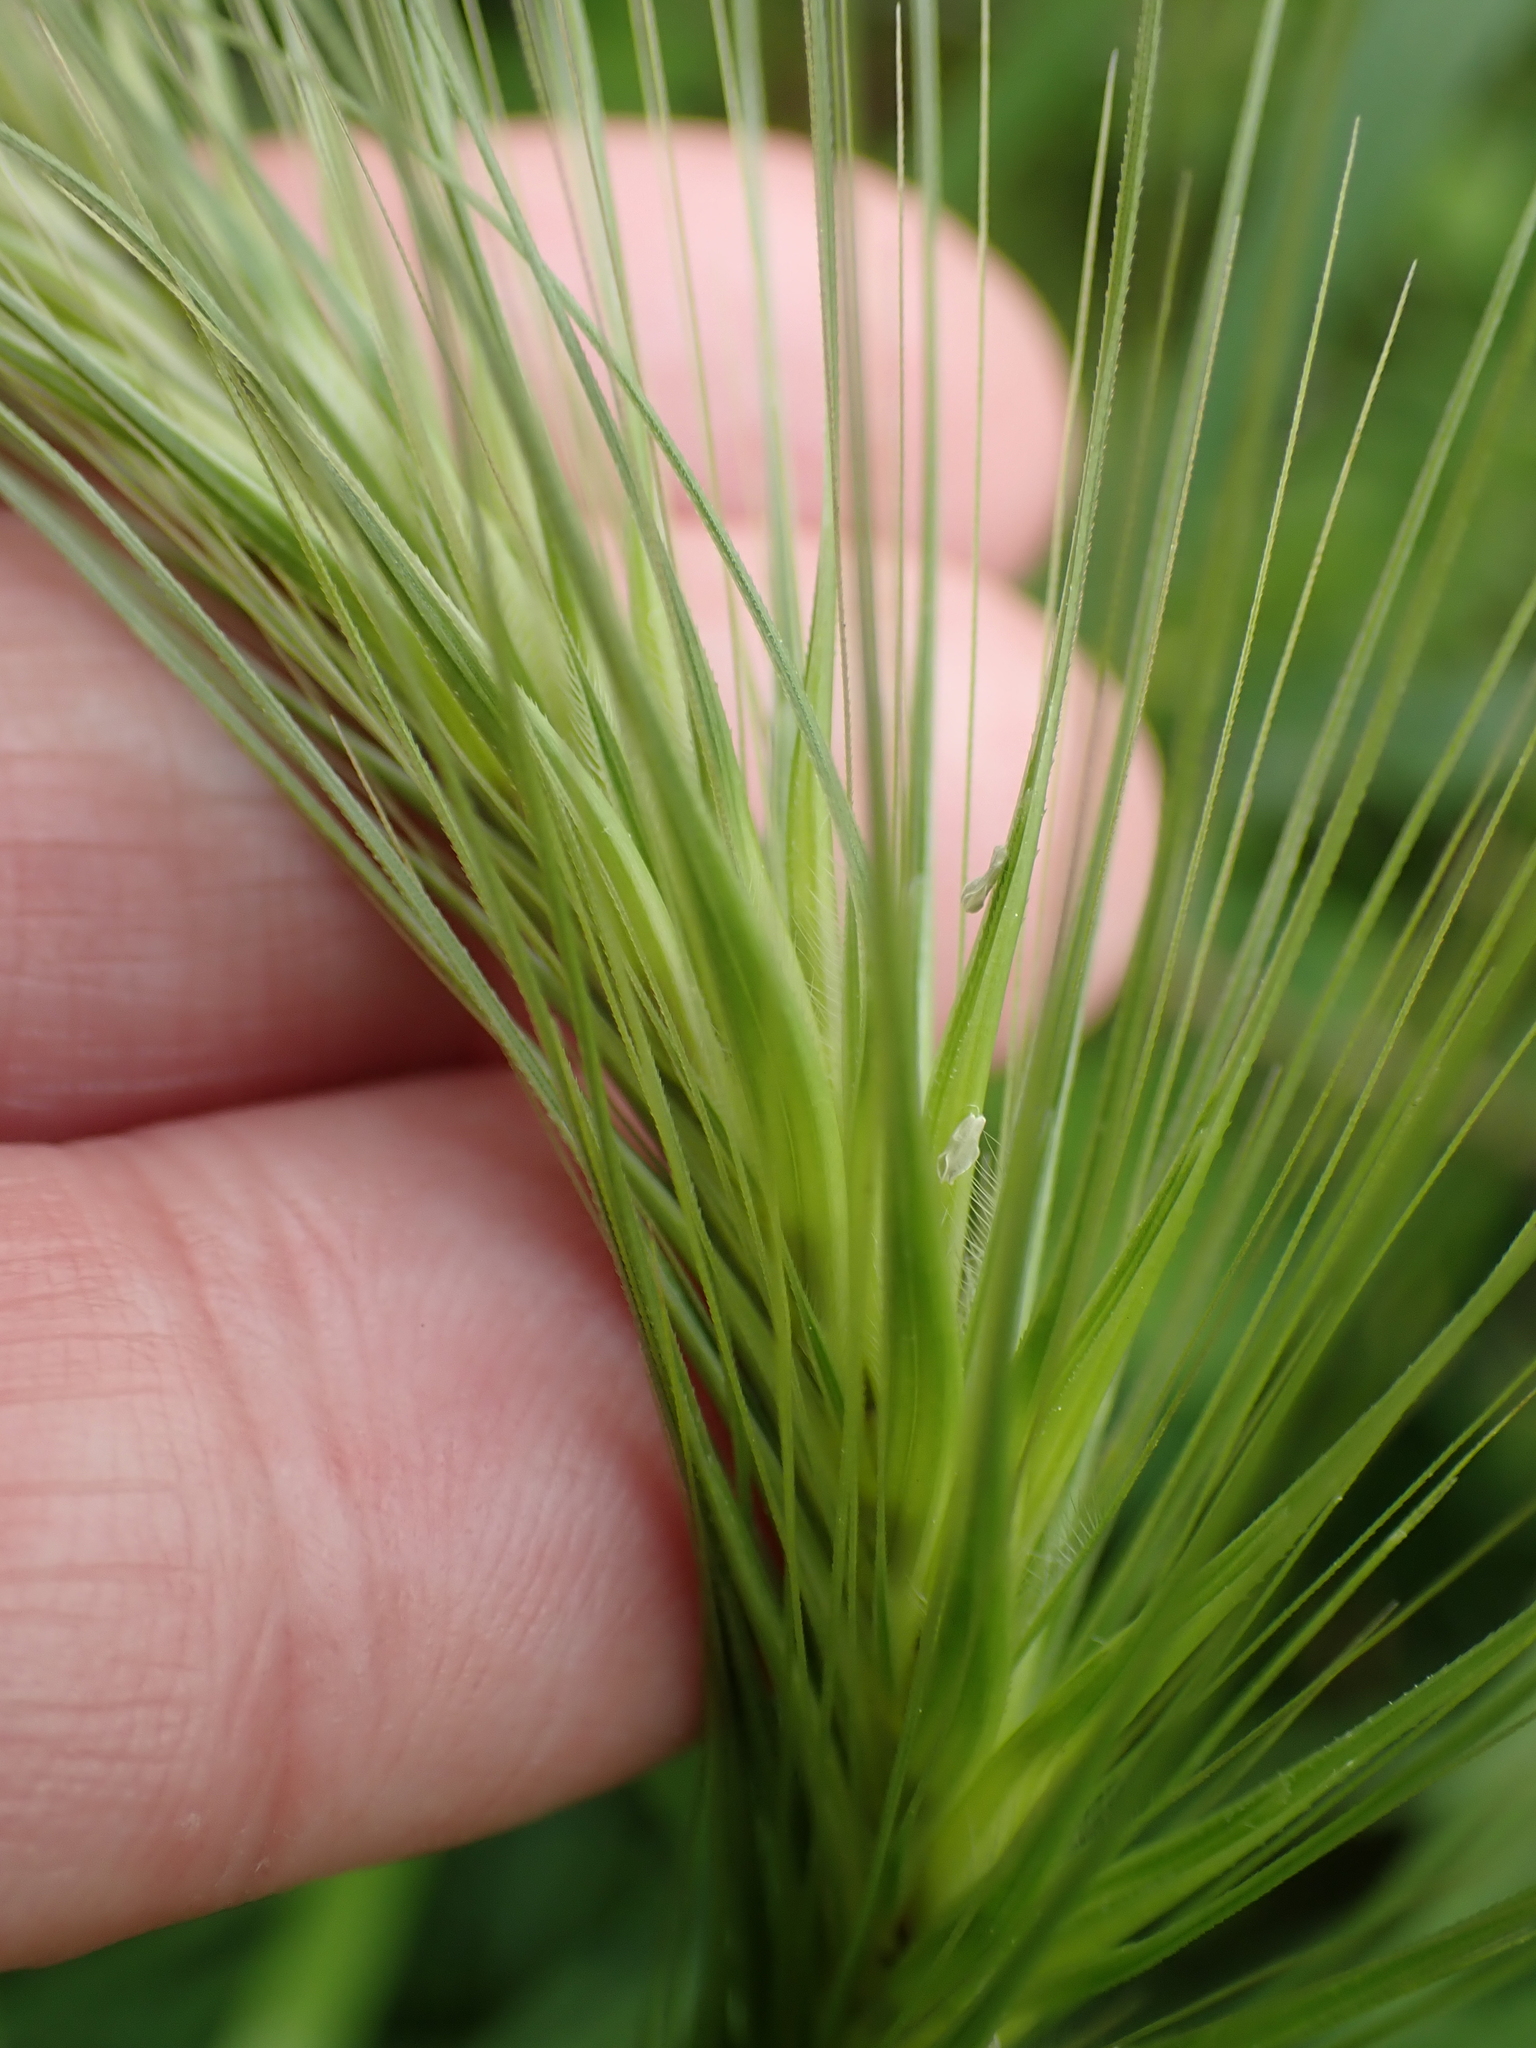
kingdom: Plantae
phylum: Tracheophyta
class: Liliopsida
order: Poales
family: Poaceae
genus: Hordeum
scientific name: Hordeum murinum
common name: Wall barley
